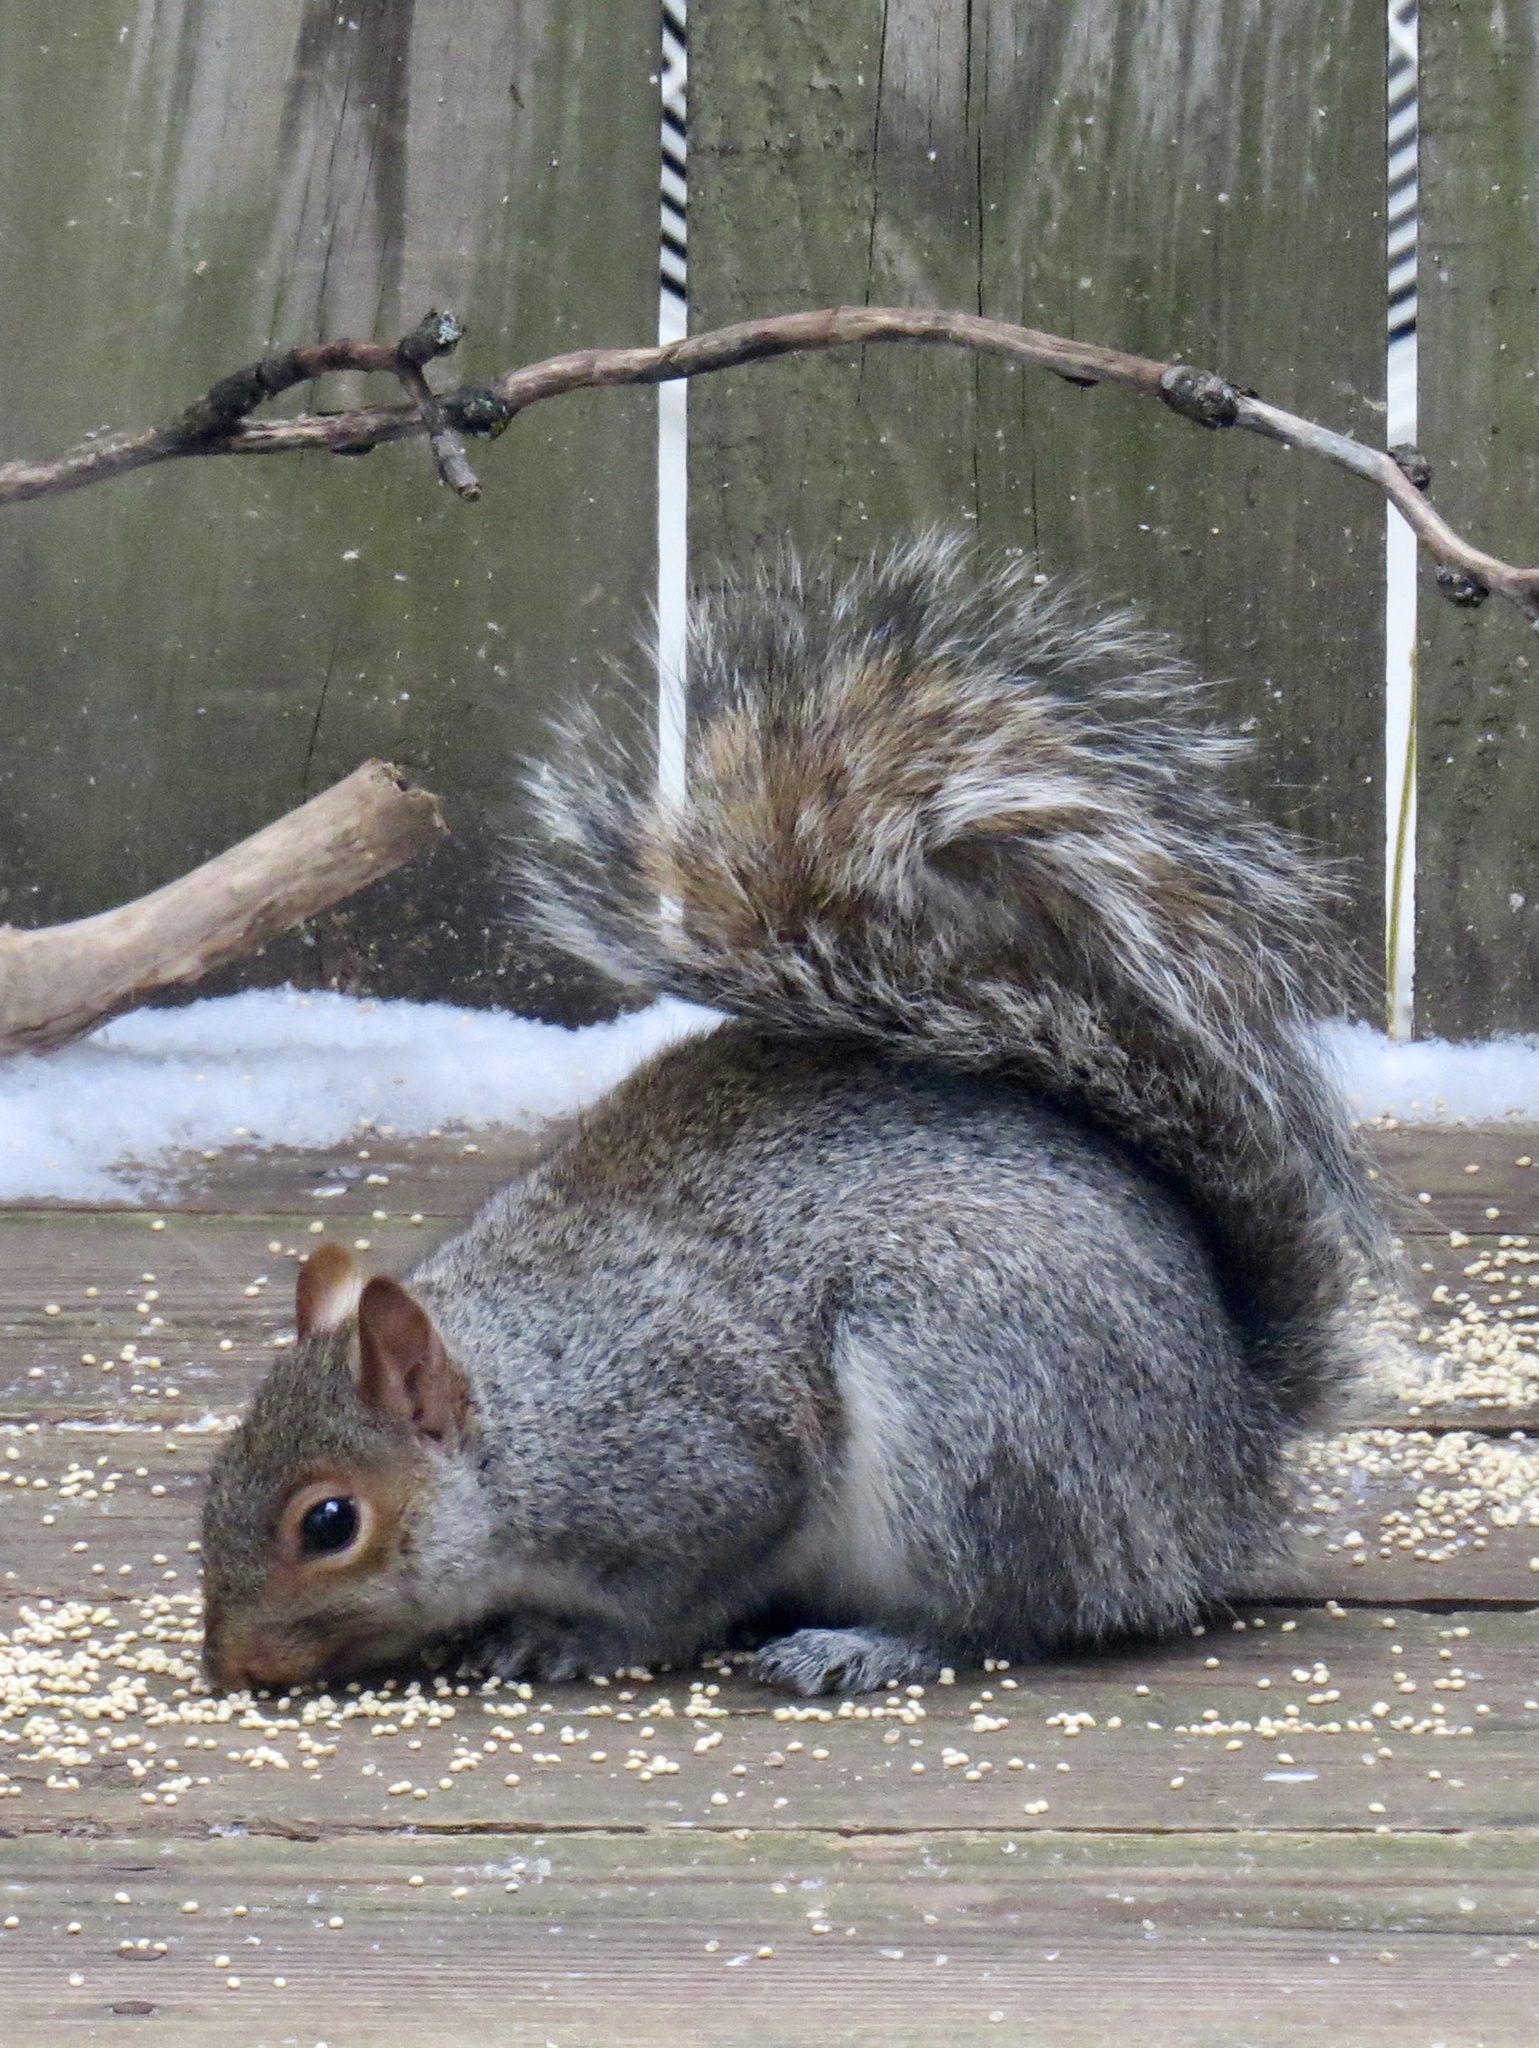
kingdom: Animalia
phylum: Chordata
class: Mammalia
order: Rodentia
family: Sciuridae
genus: Sciurus
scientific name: Sciurus carolinensis
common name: Eastern gray squirrel
